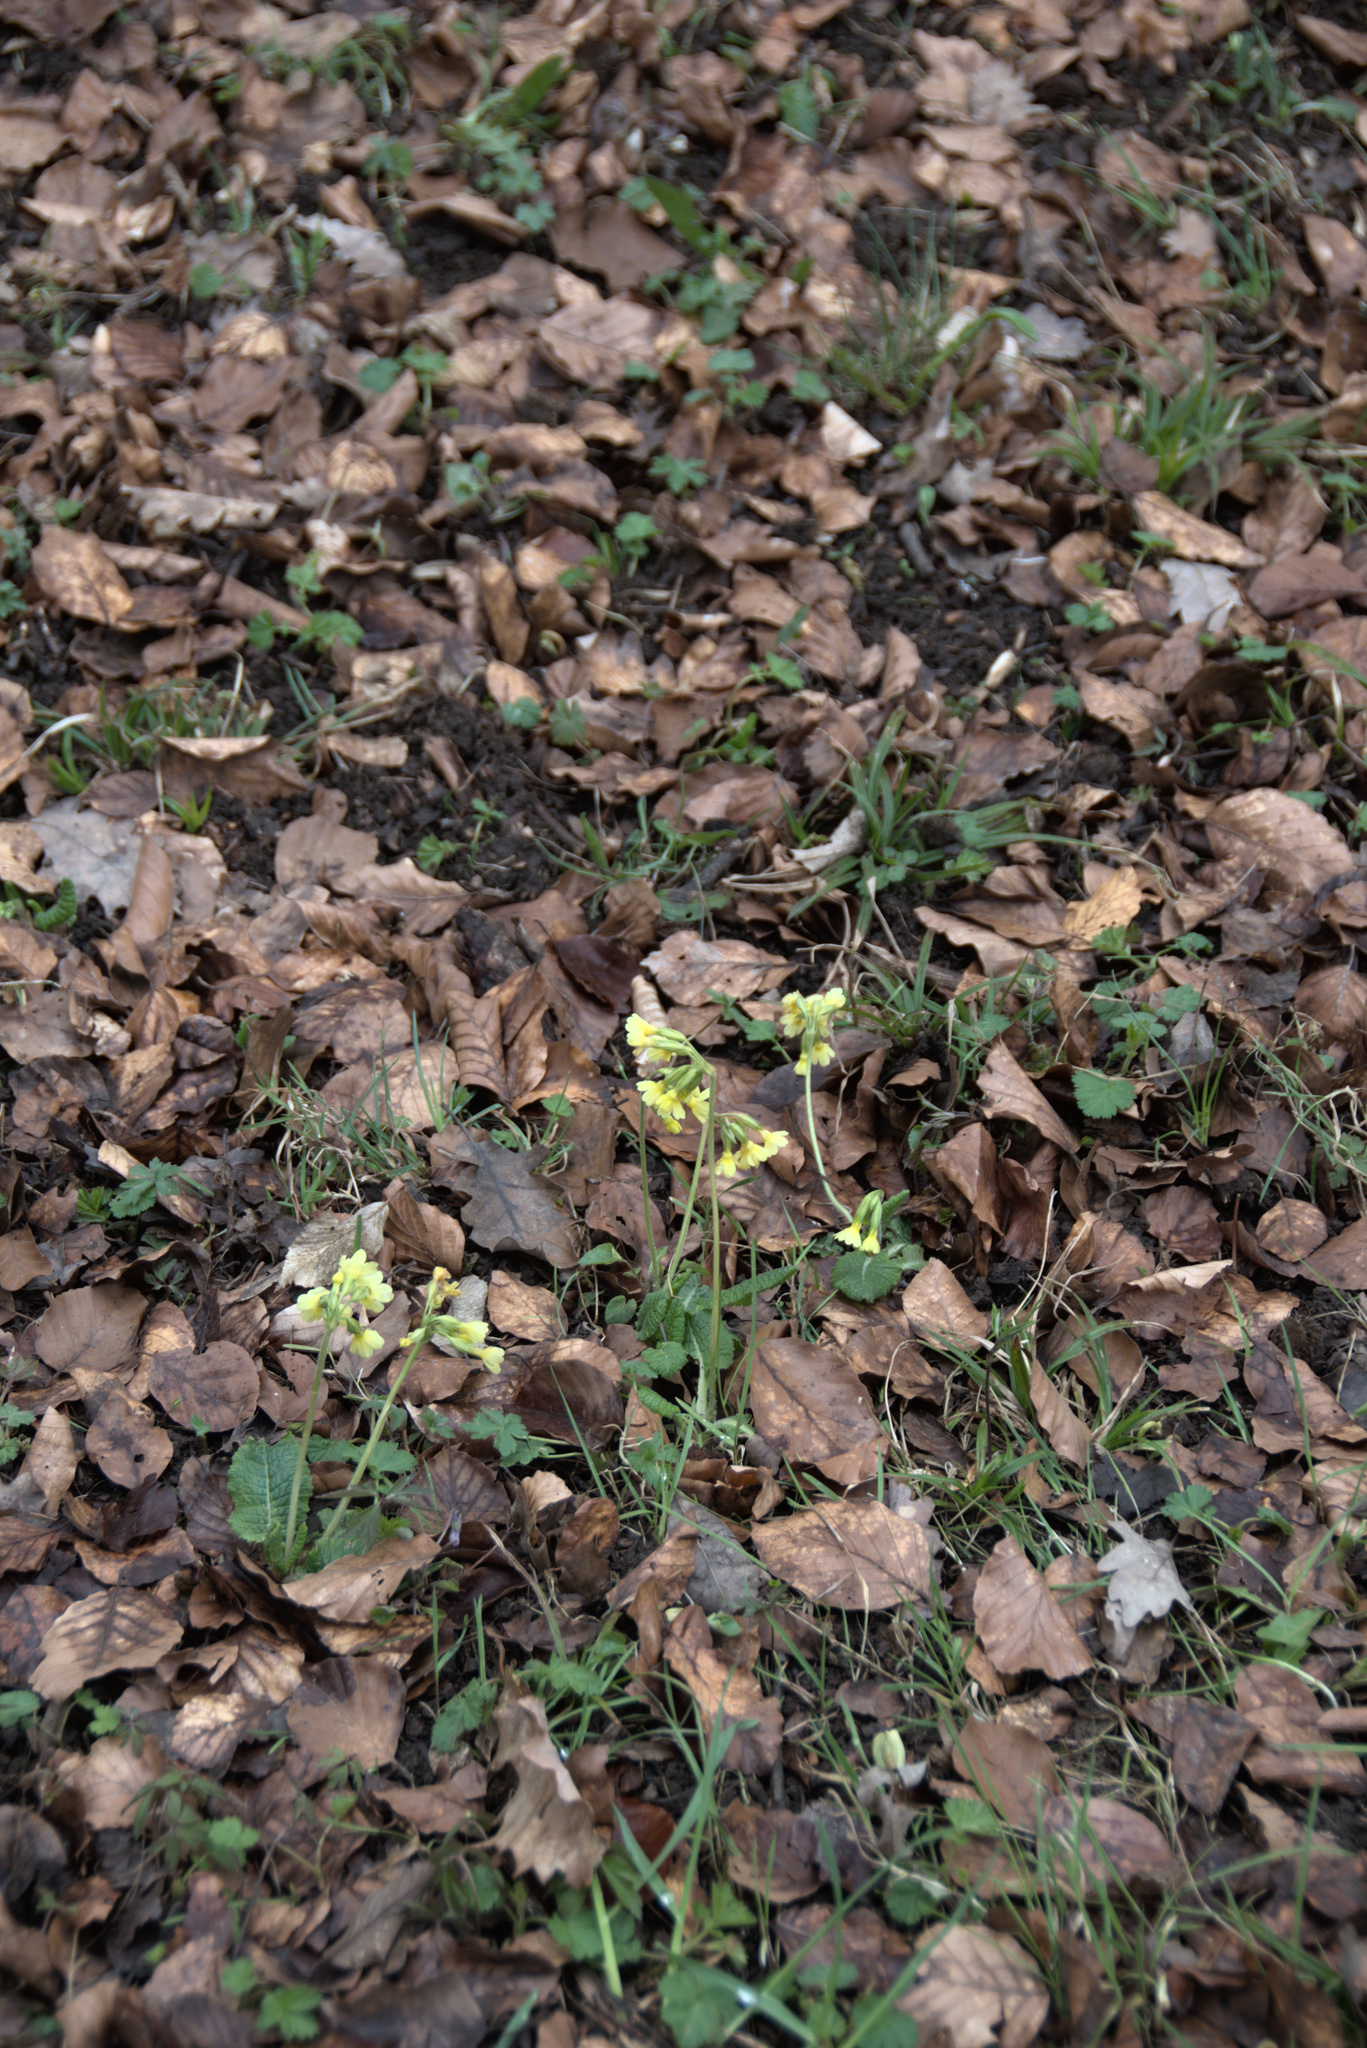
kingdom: Plantae
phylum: Tracheophyta
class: Magnoliopsida
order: Ericales
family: Primulaceae
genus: Primula
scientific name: Primula elatior
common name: Oxlip
